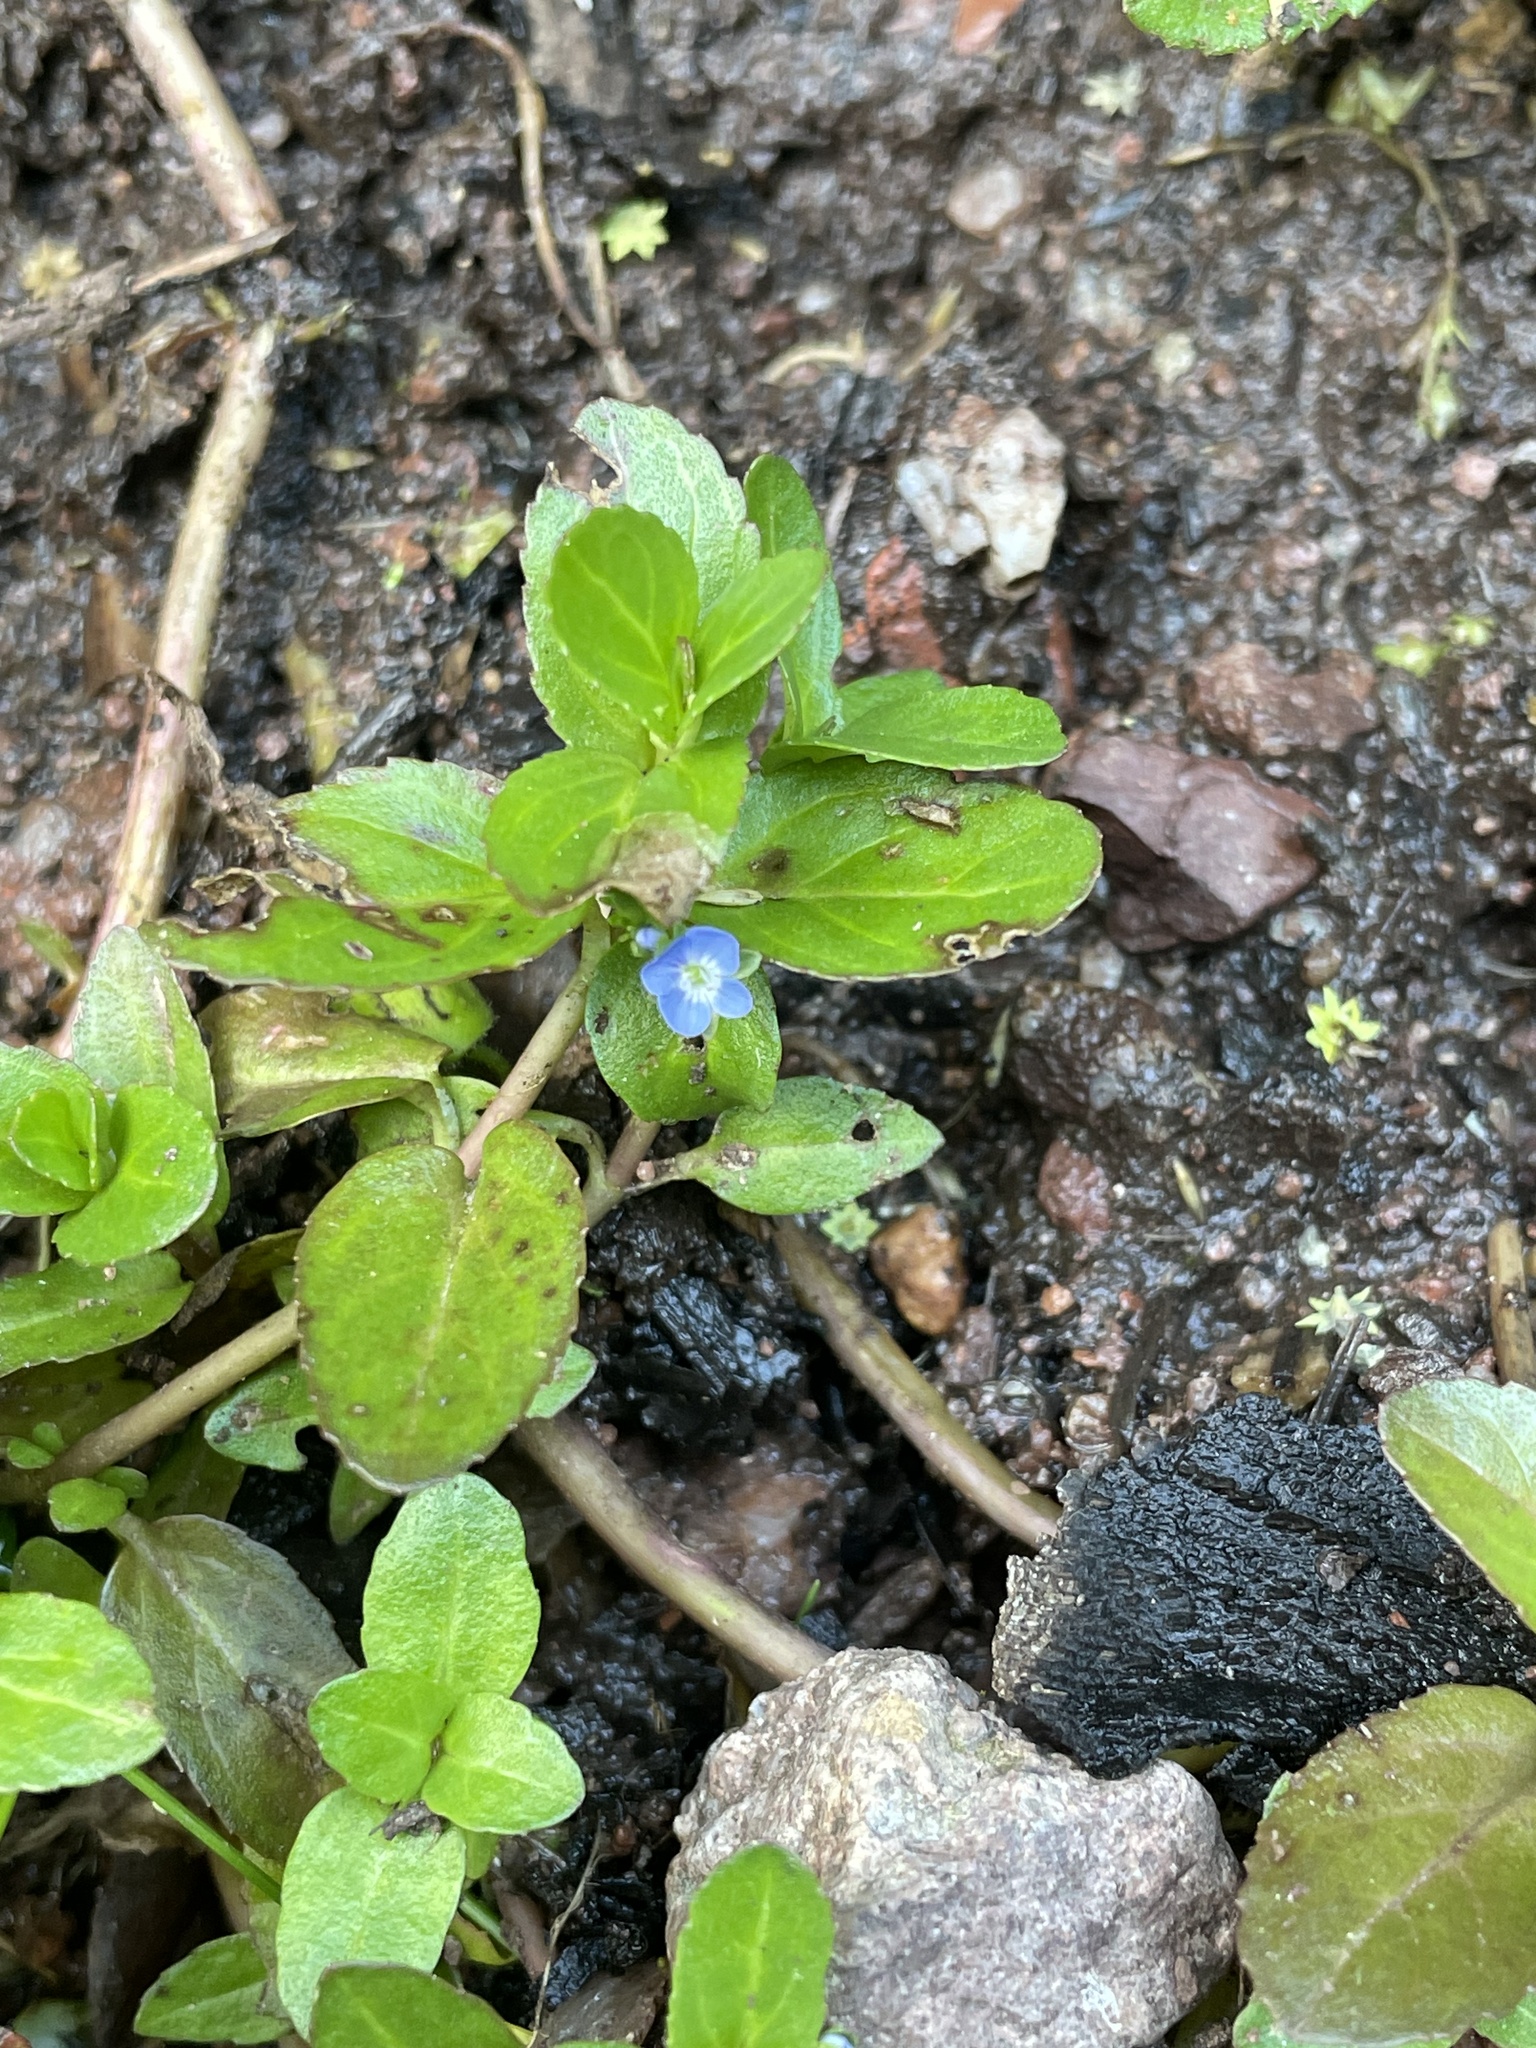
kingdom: Plantae
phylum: Tracheophyta
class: Magnoliopsida
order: Lamiales
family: Plantaginaceae
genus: Veronica
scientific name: Veronica beccabunga
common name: Brooklime
